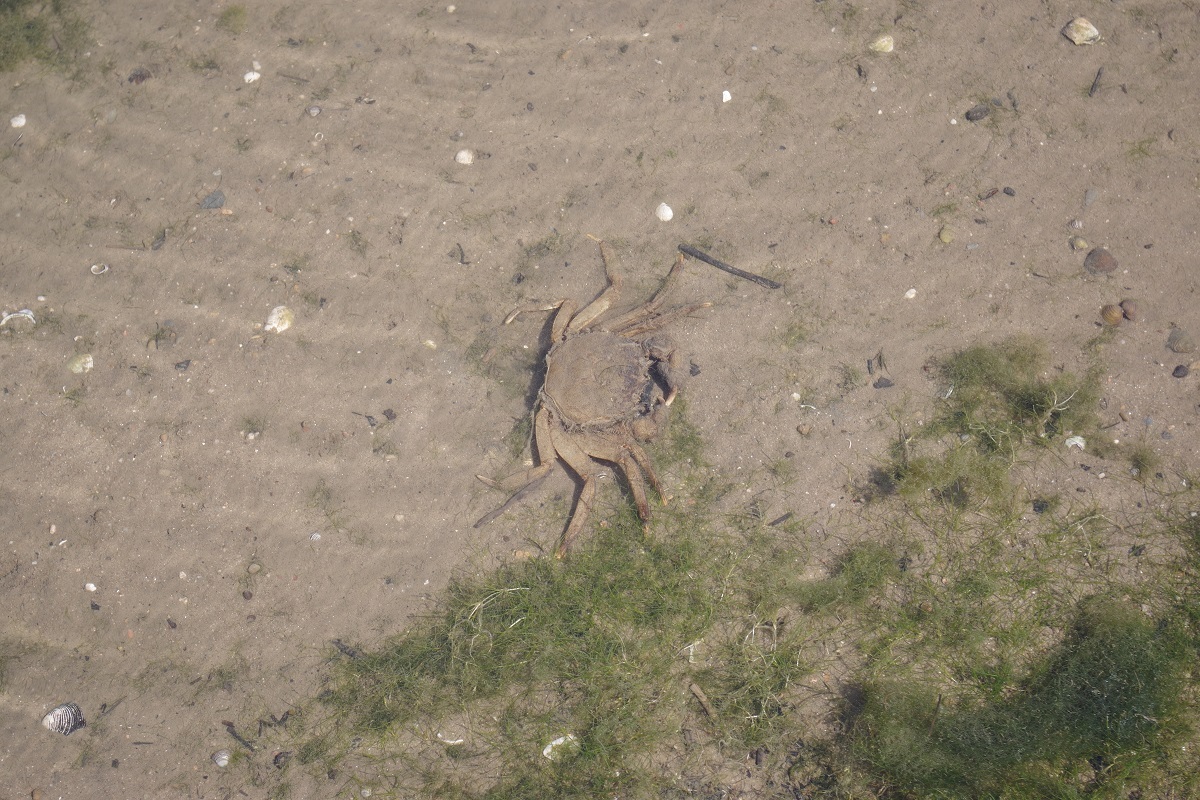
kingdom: Animalia
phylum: Arthropoda
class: Malacostraca
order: Decapoda
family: Varunidae
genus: Eriocheir
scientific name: Eriocheir sinensis
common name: Chinese mitten crab
